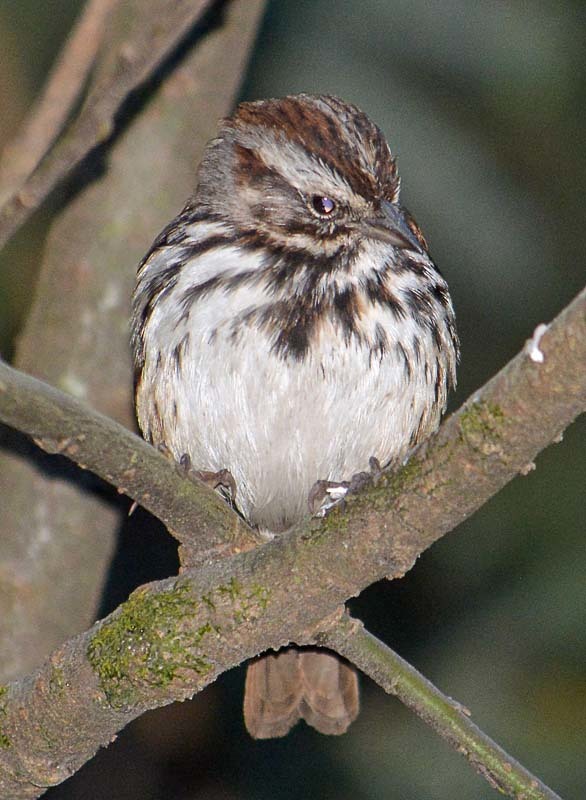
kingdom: Animalia
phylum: Chordata
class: Aves
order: Passeriformes
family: Passerellidae
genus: Melospiza
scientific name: Melospiza melodia
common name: Song sparrow
